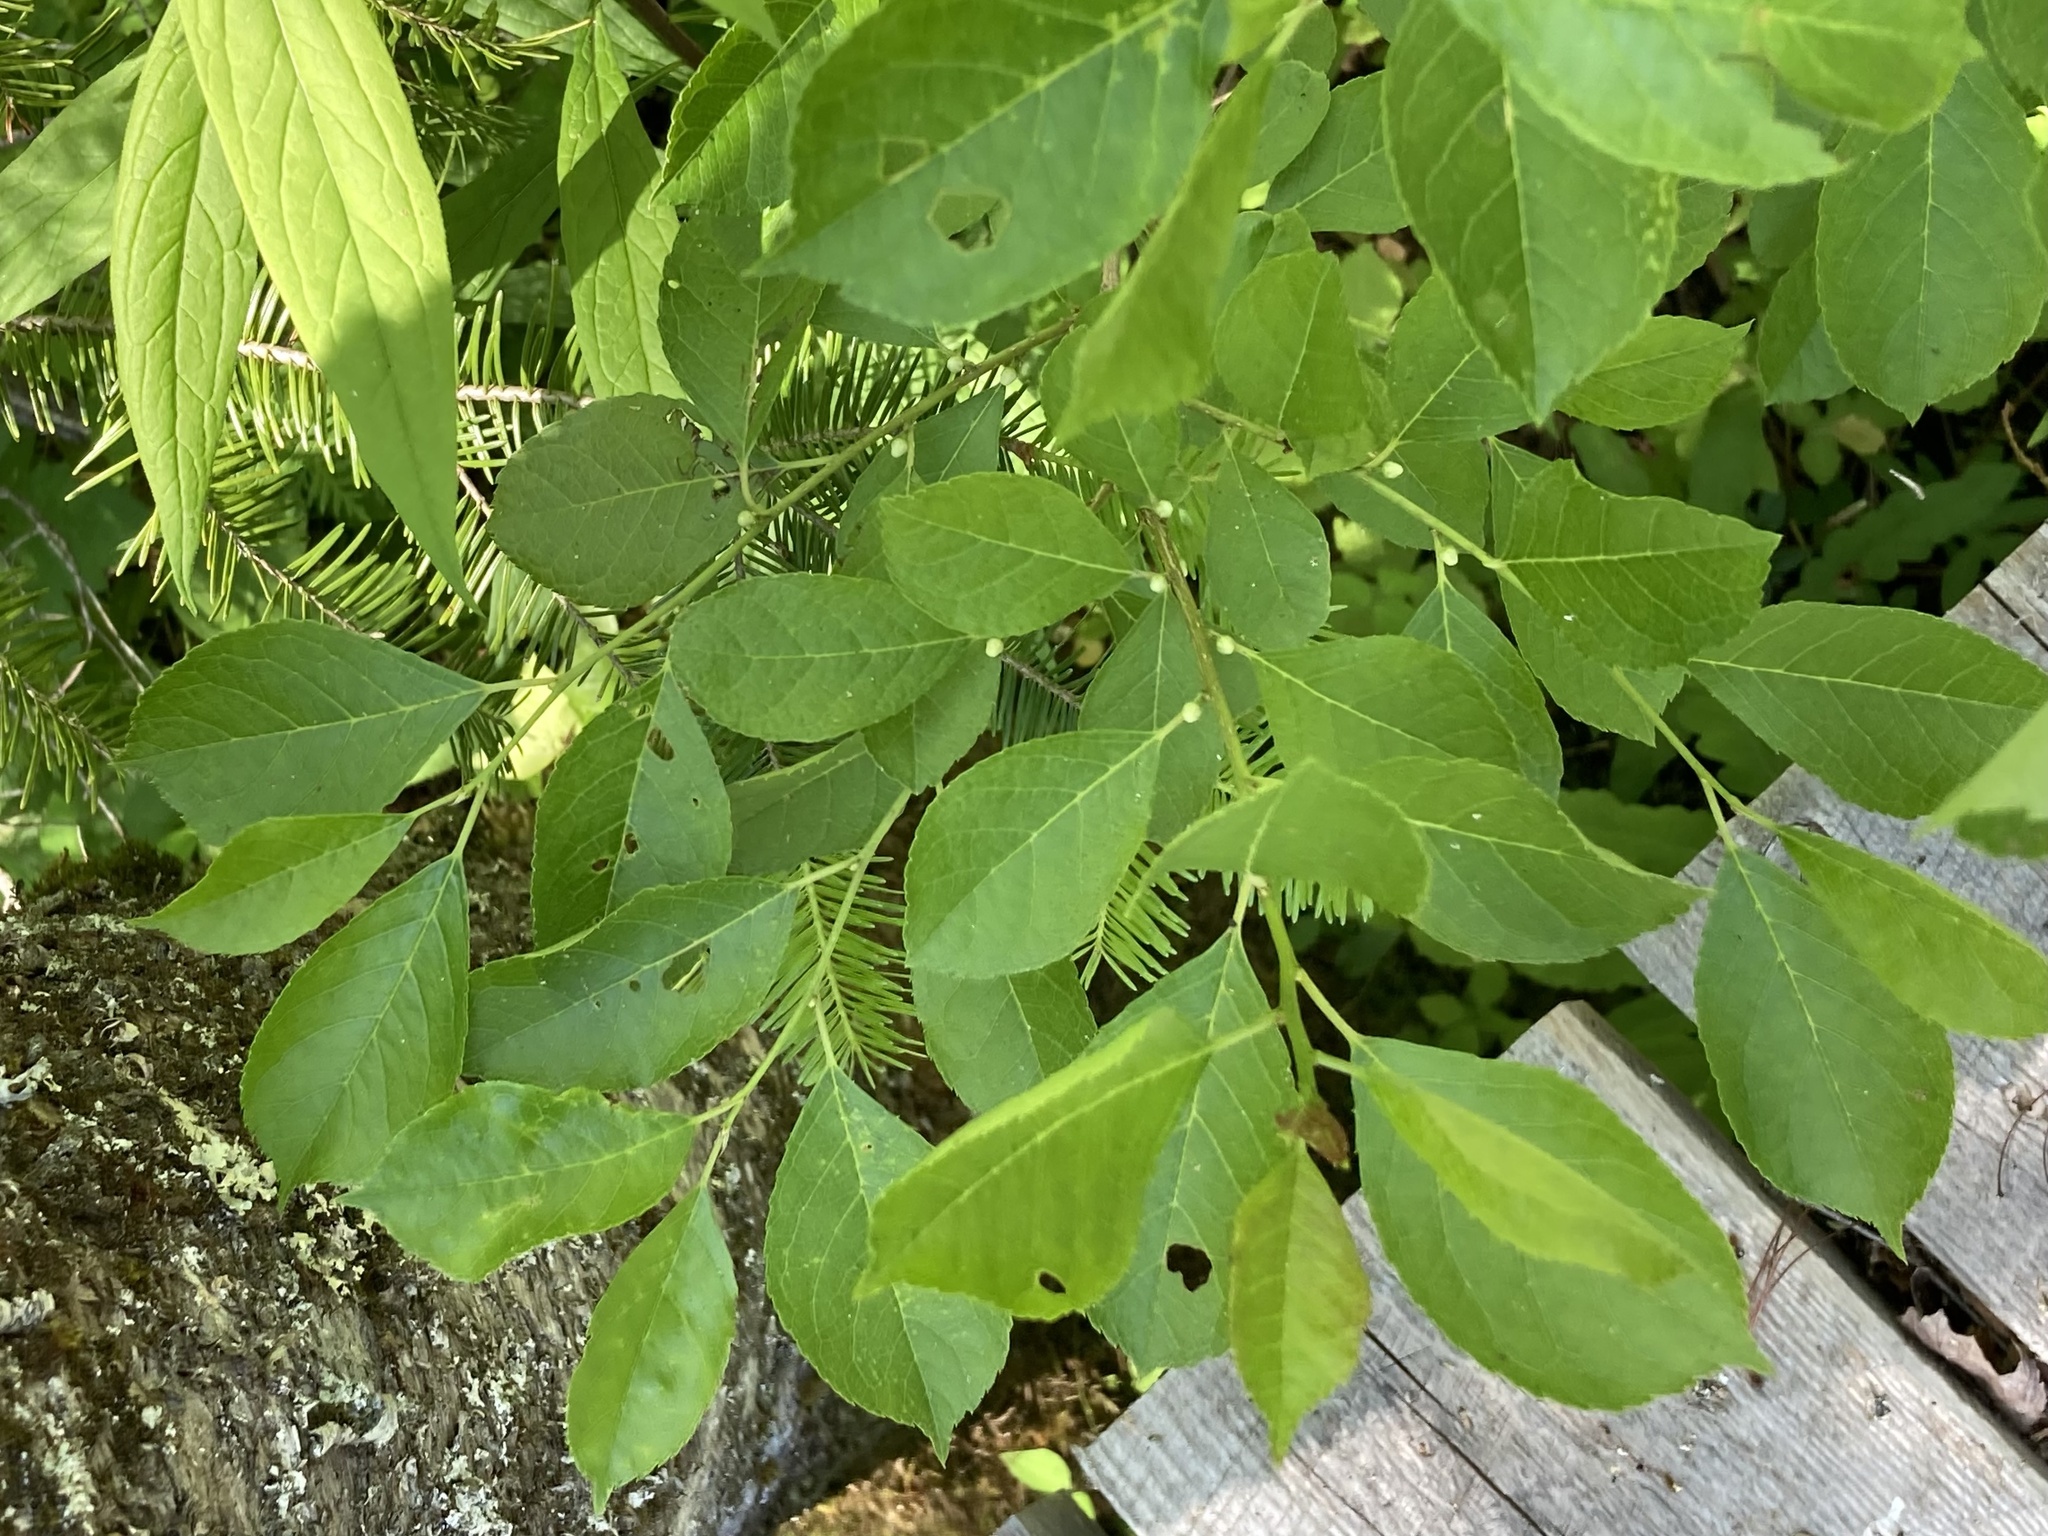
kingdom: Plantae
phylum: Tracheophyta
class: Magnoliopsida
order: Aquifoliales
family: Aquifoliaceae
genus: Ilex
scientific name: Ilex verticillata
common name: Virginia winterberry
